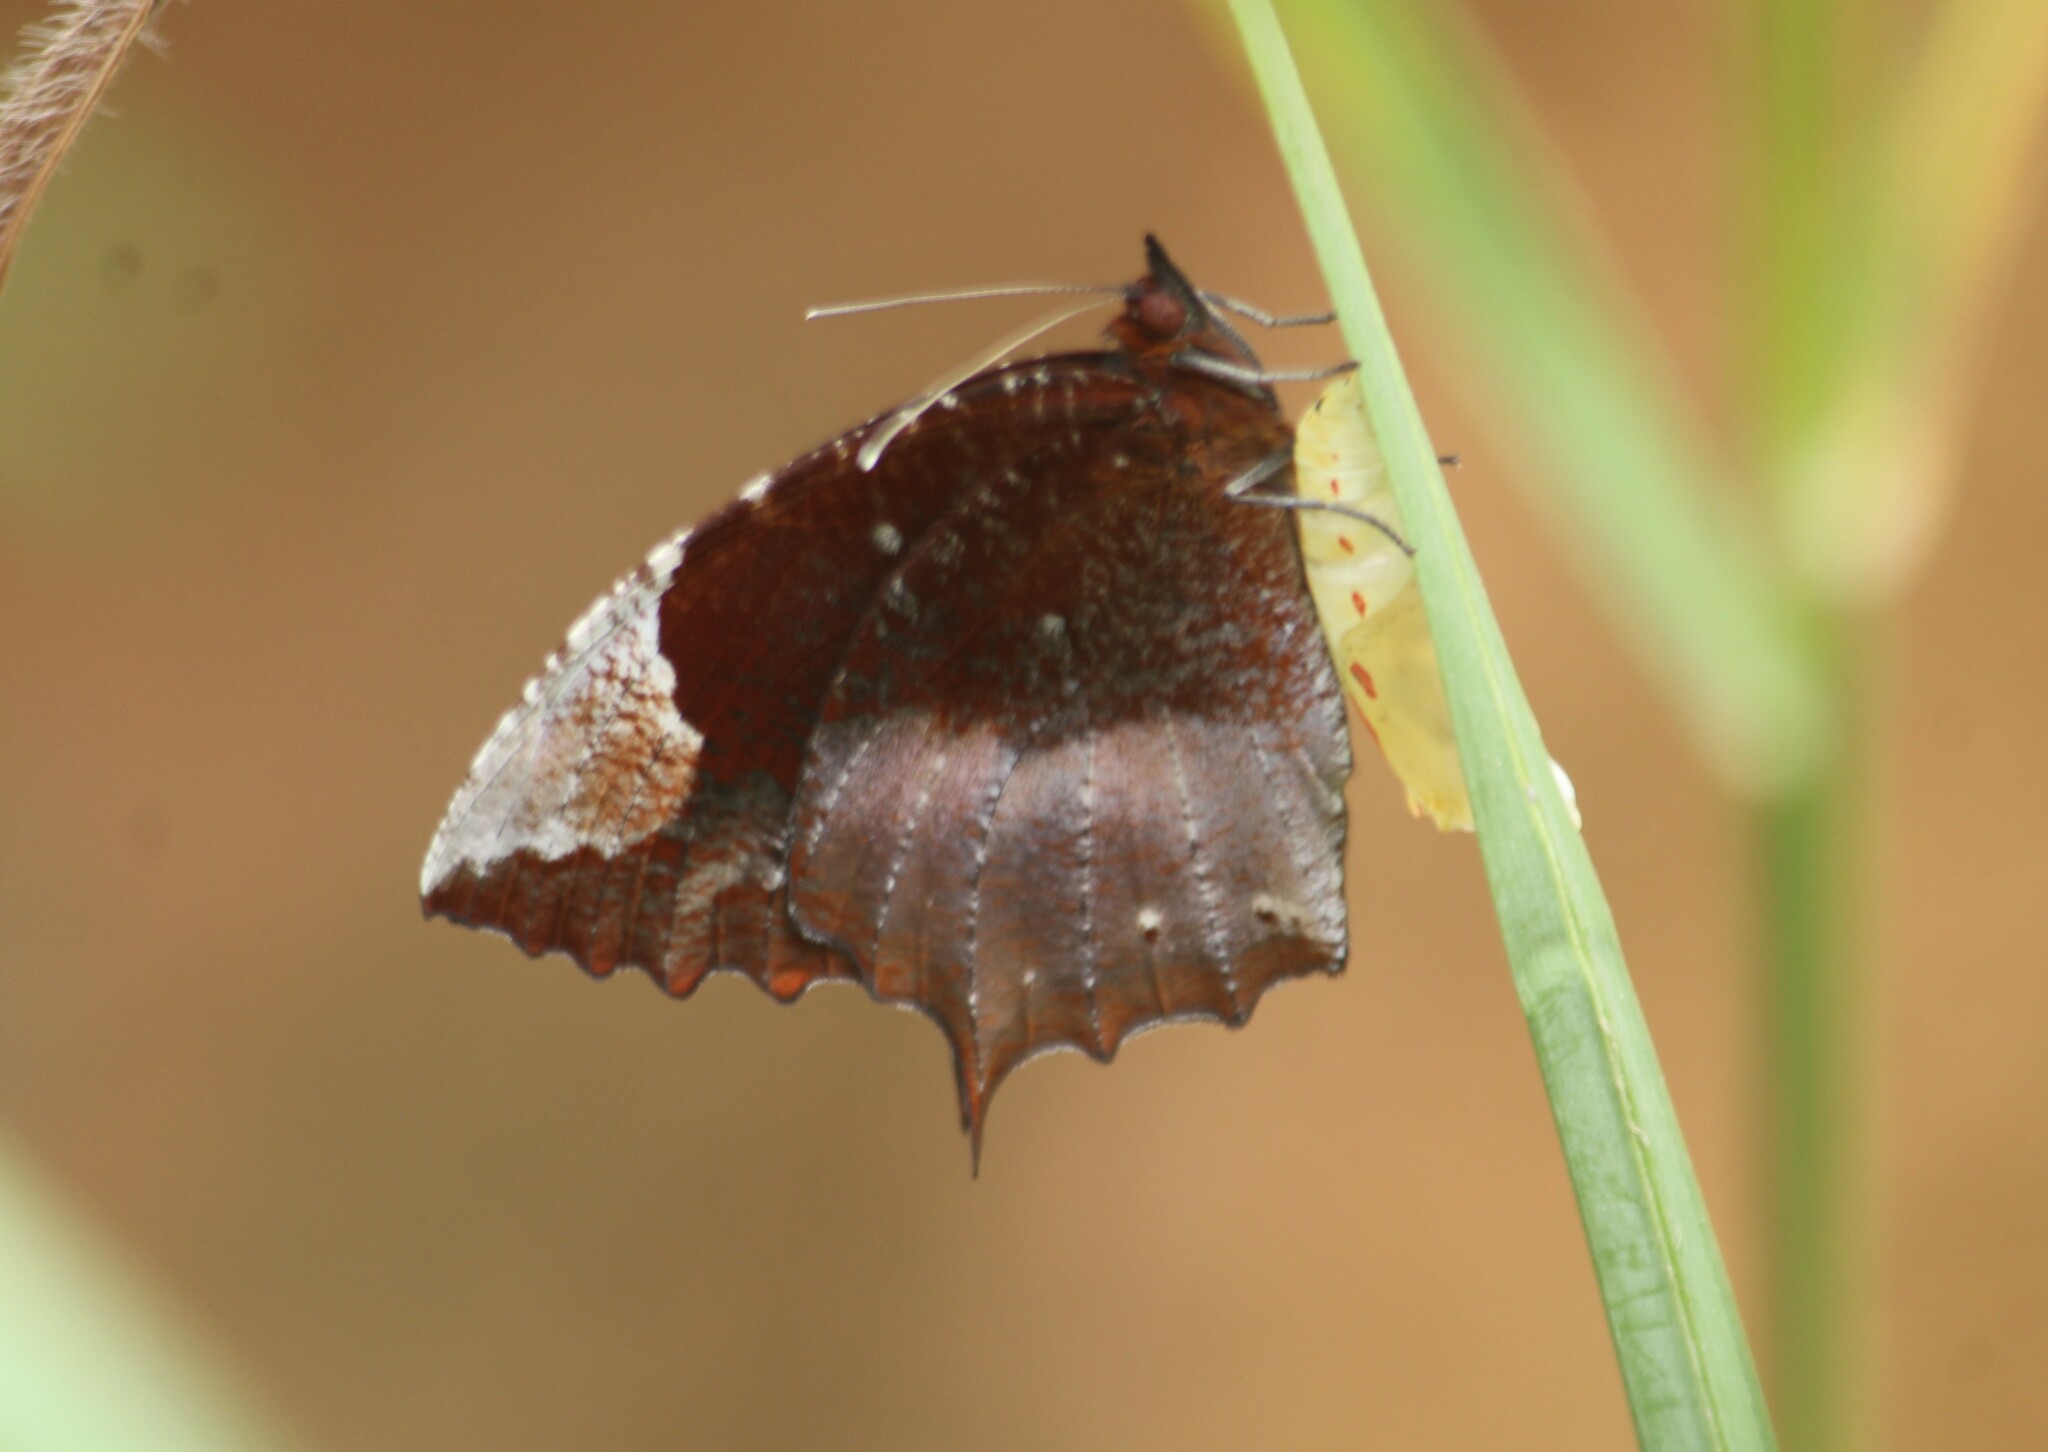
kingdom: Animalia
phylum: Arthropoda
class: Insecta
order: Lepidoptera
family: Nymphalidae
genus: Elymnias
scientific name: Elymnias caudata
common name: Tailed palmfly
